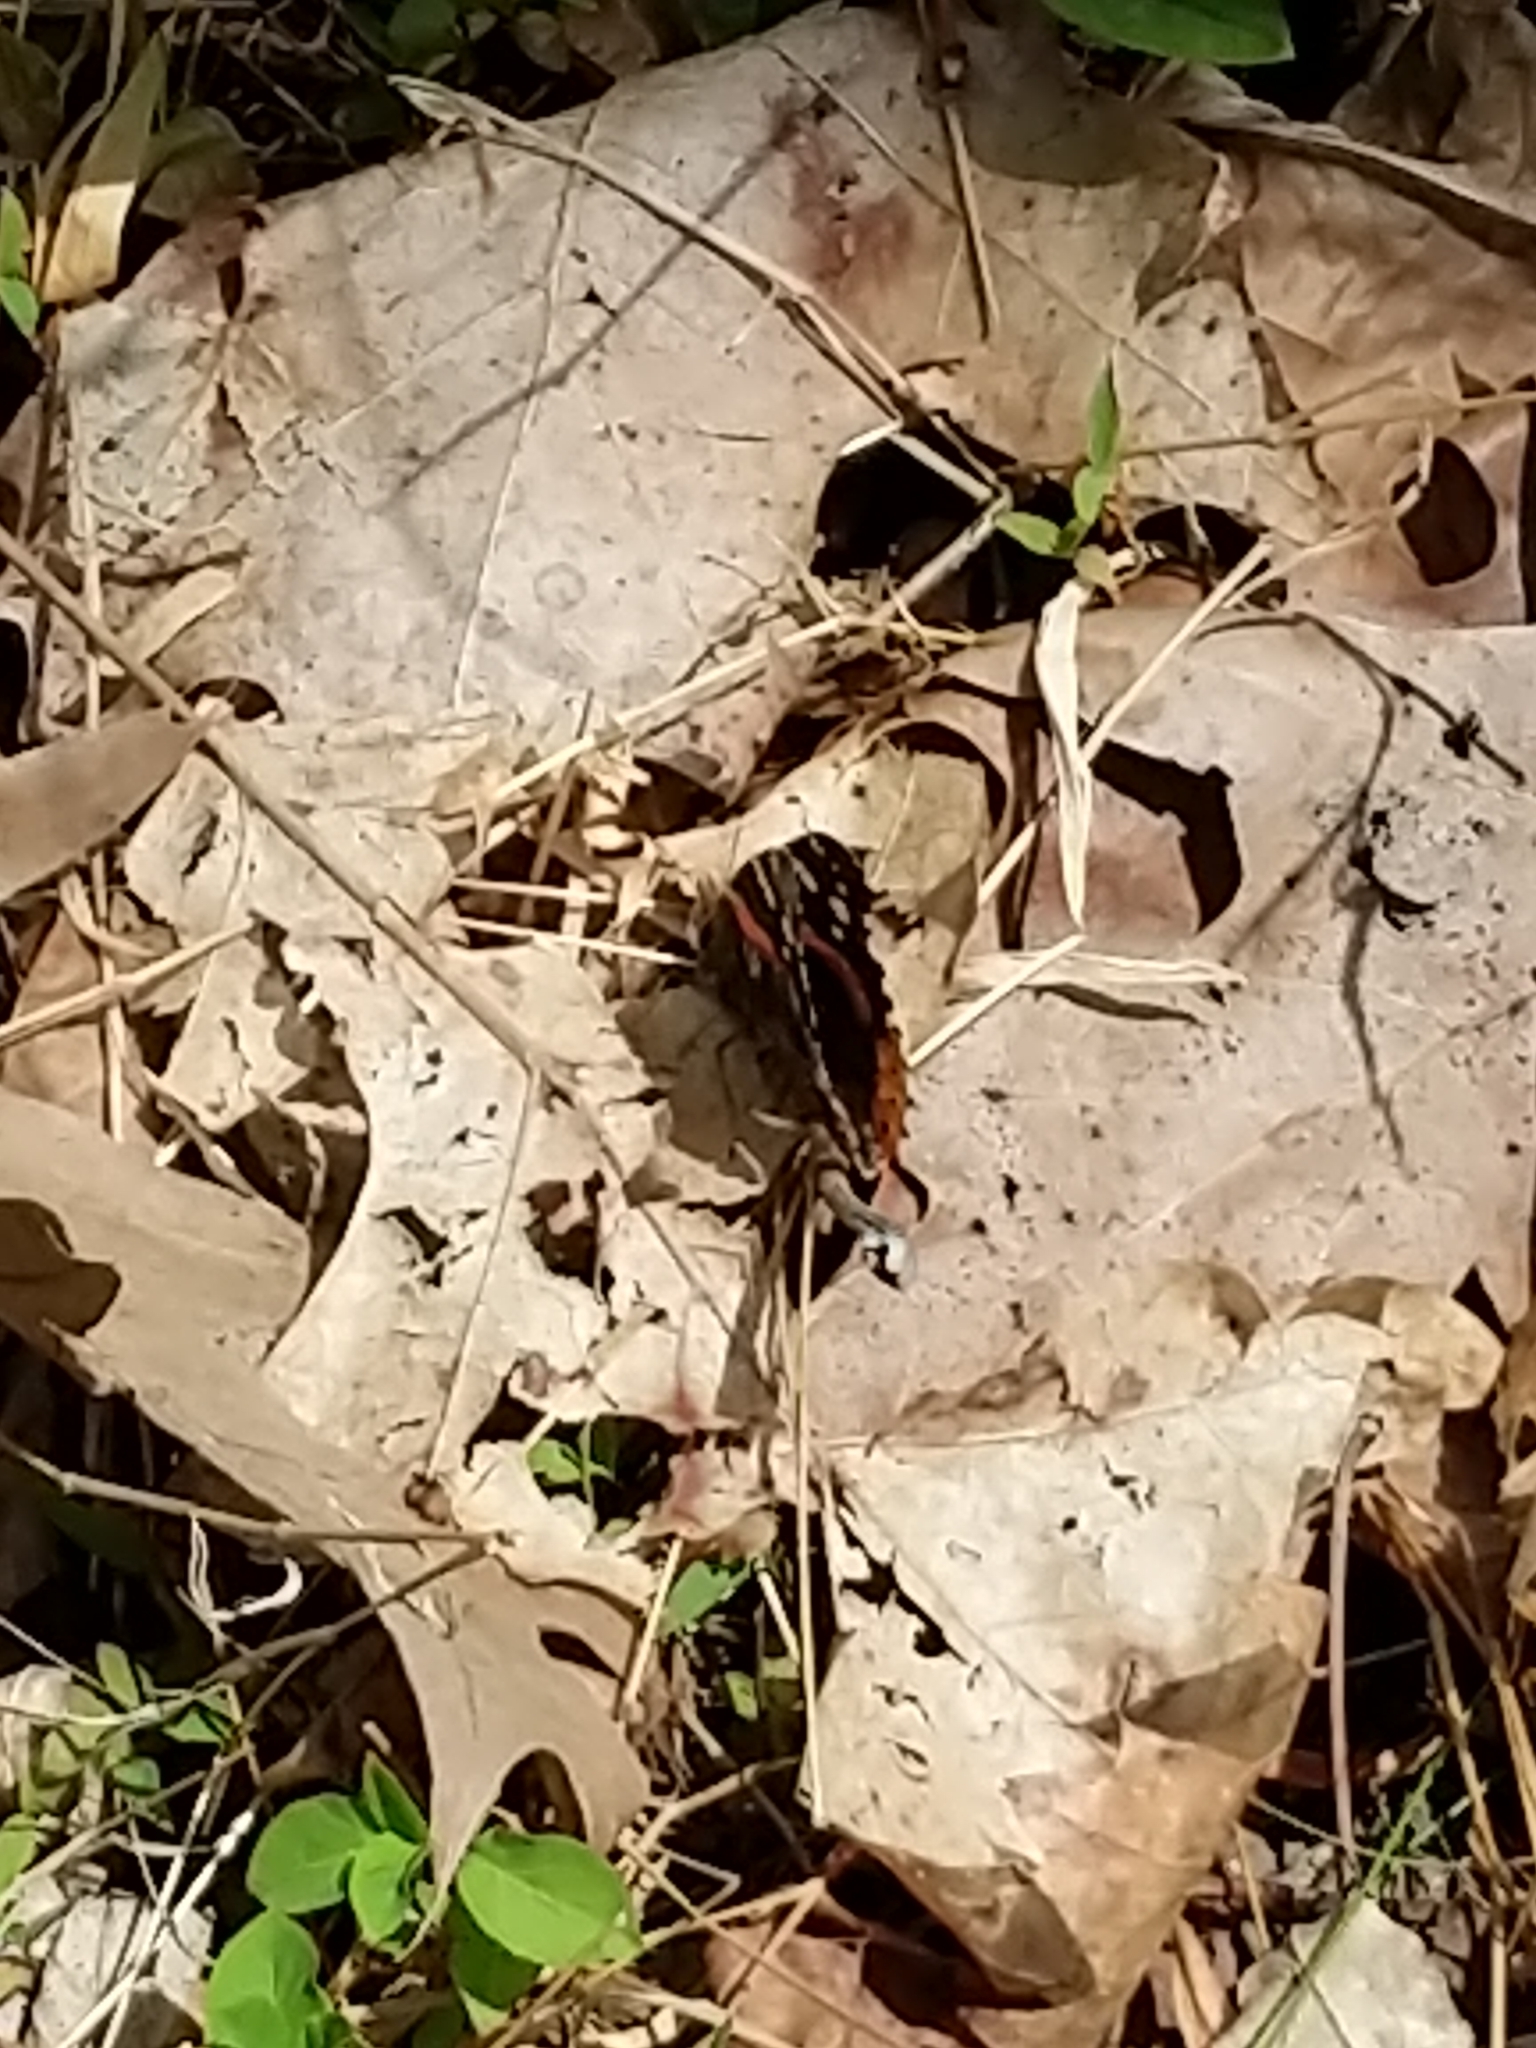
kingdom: Animalia
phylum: Arthropoda
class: Insecta
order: Lepidoptera
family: Nymphalidae
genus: Vanessa
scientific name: Vanessa atalanta
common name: Red admiral
